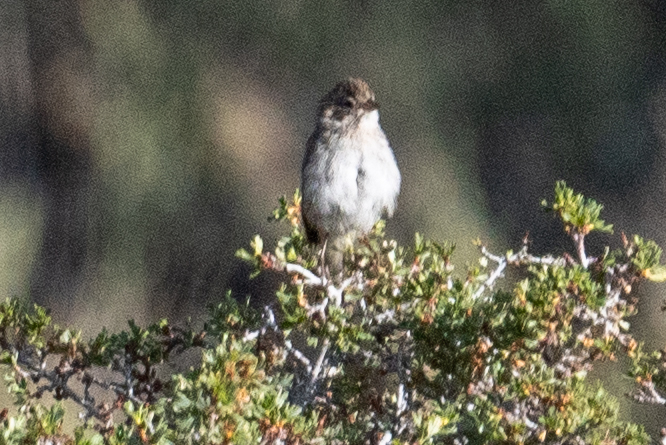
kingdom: Animalia
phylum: Chordata
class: Aves
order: Passeriformes
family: Passerellidae
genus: Spizella
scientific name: Spizella breweri
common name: Brewer's sparrow
